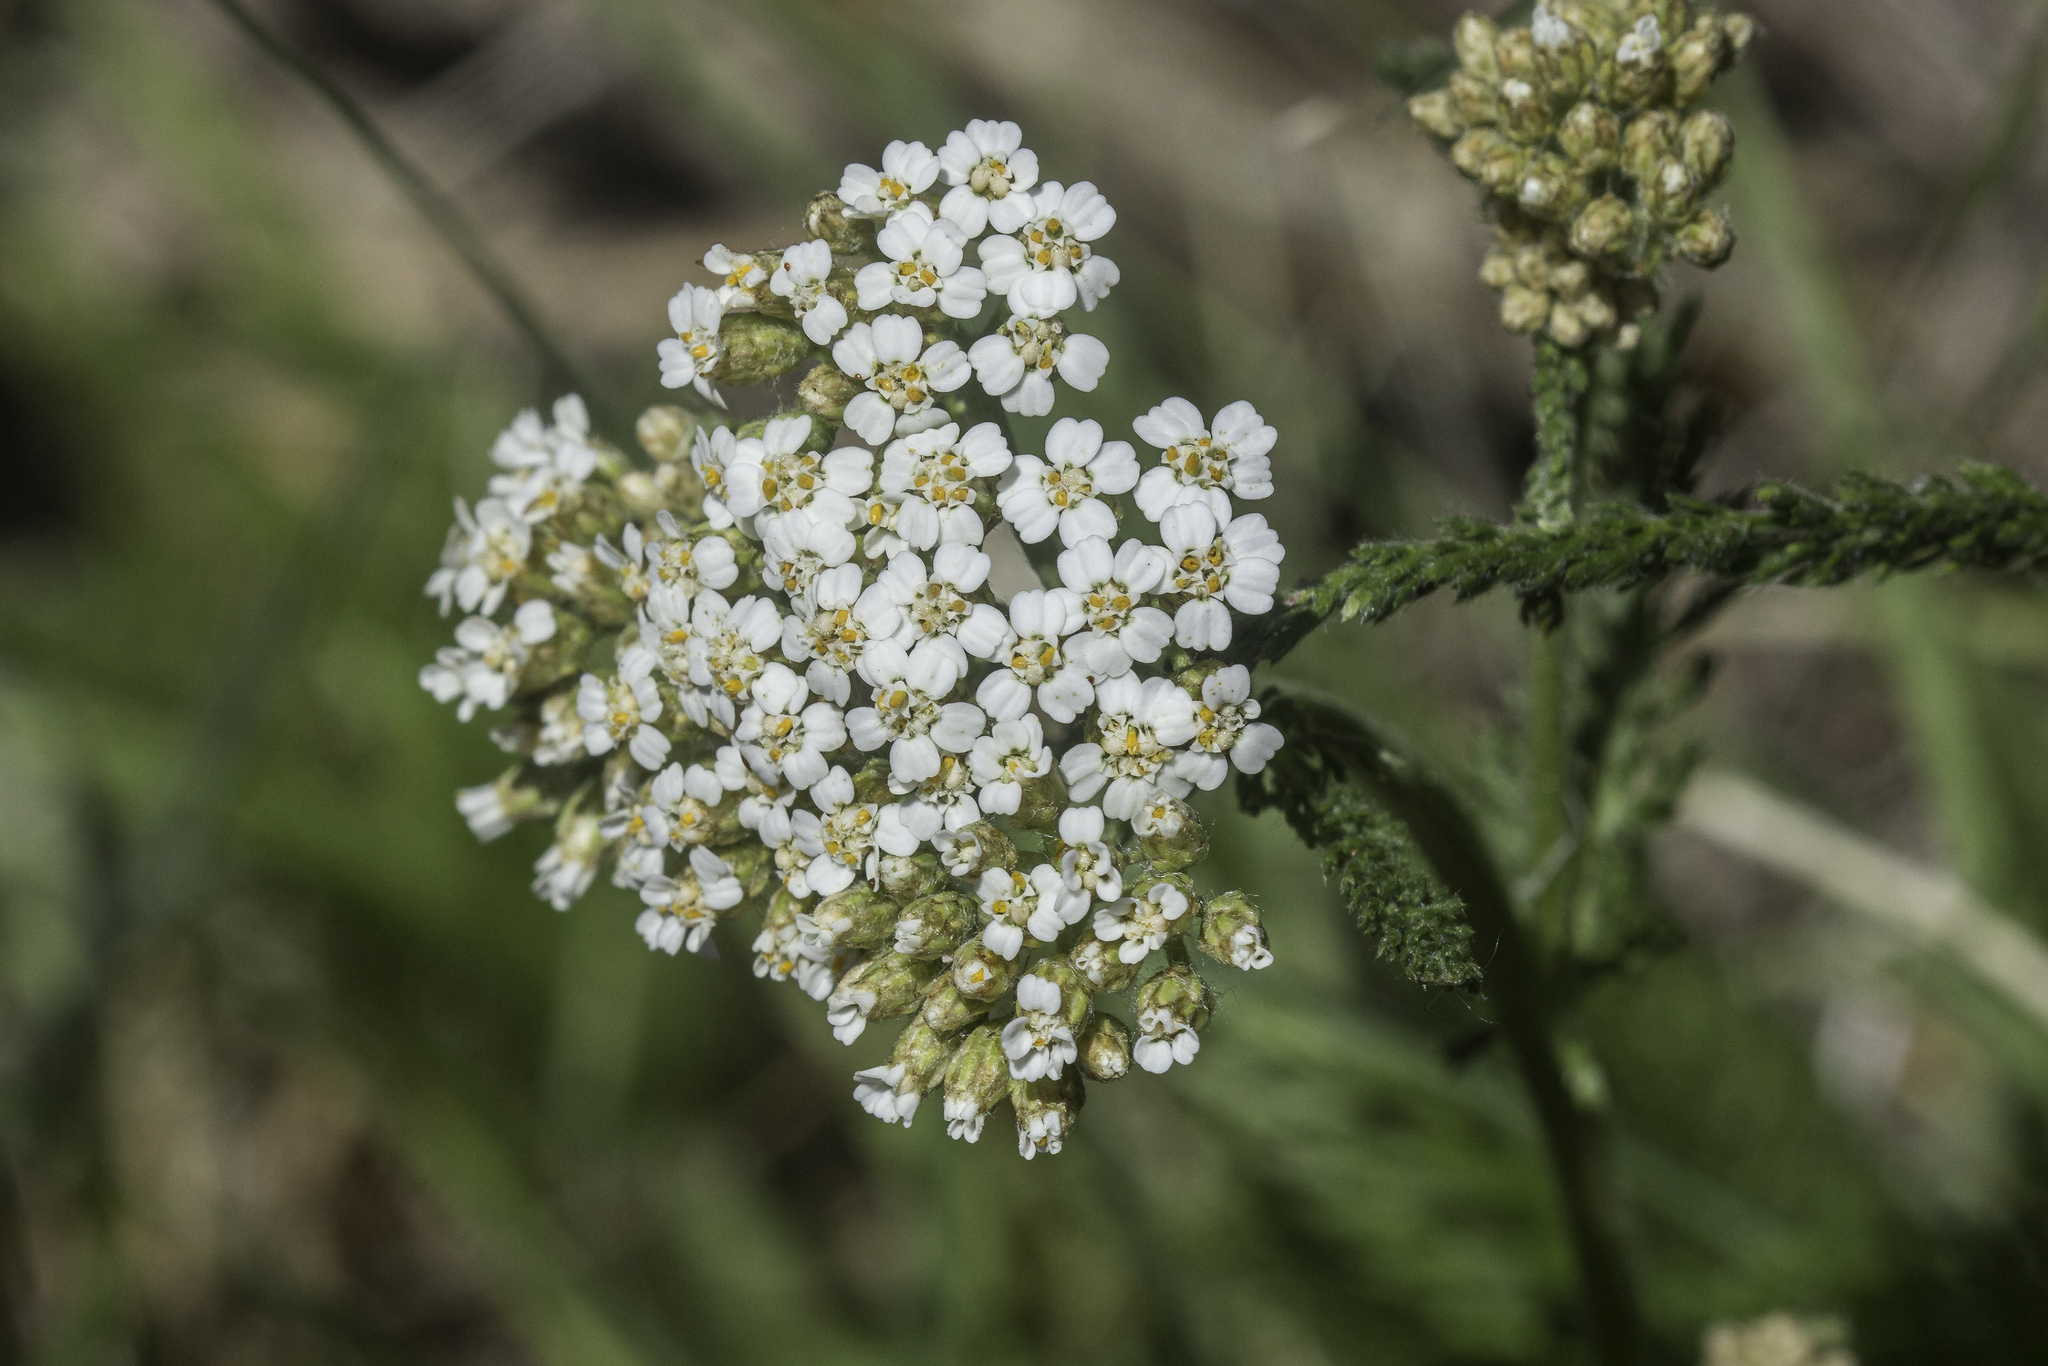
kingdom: Plantae
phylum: Tracheophyta
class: Magnoliopsida
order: Asterales
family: Asteraceae
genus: Achillea
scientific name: Achillea millefolium
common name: Yarrow
